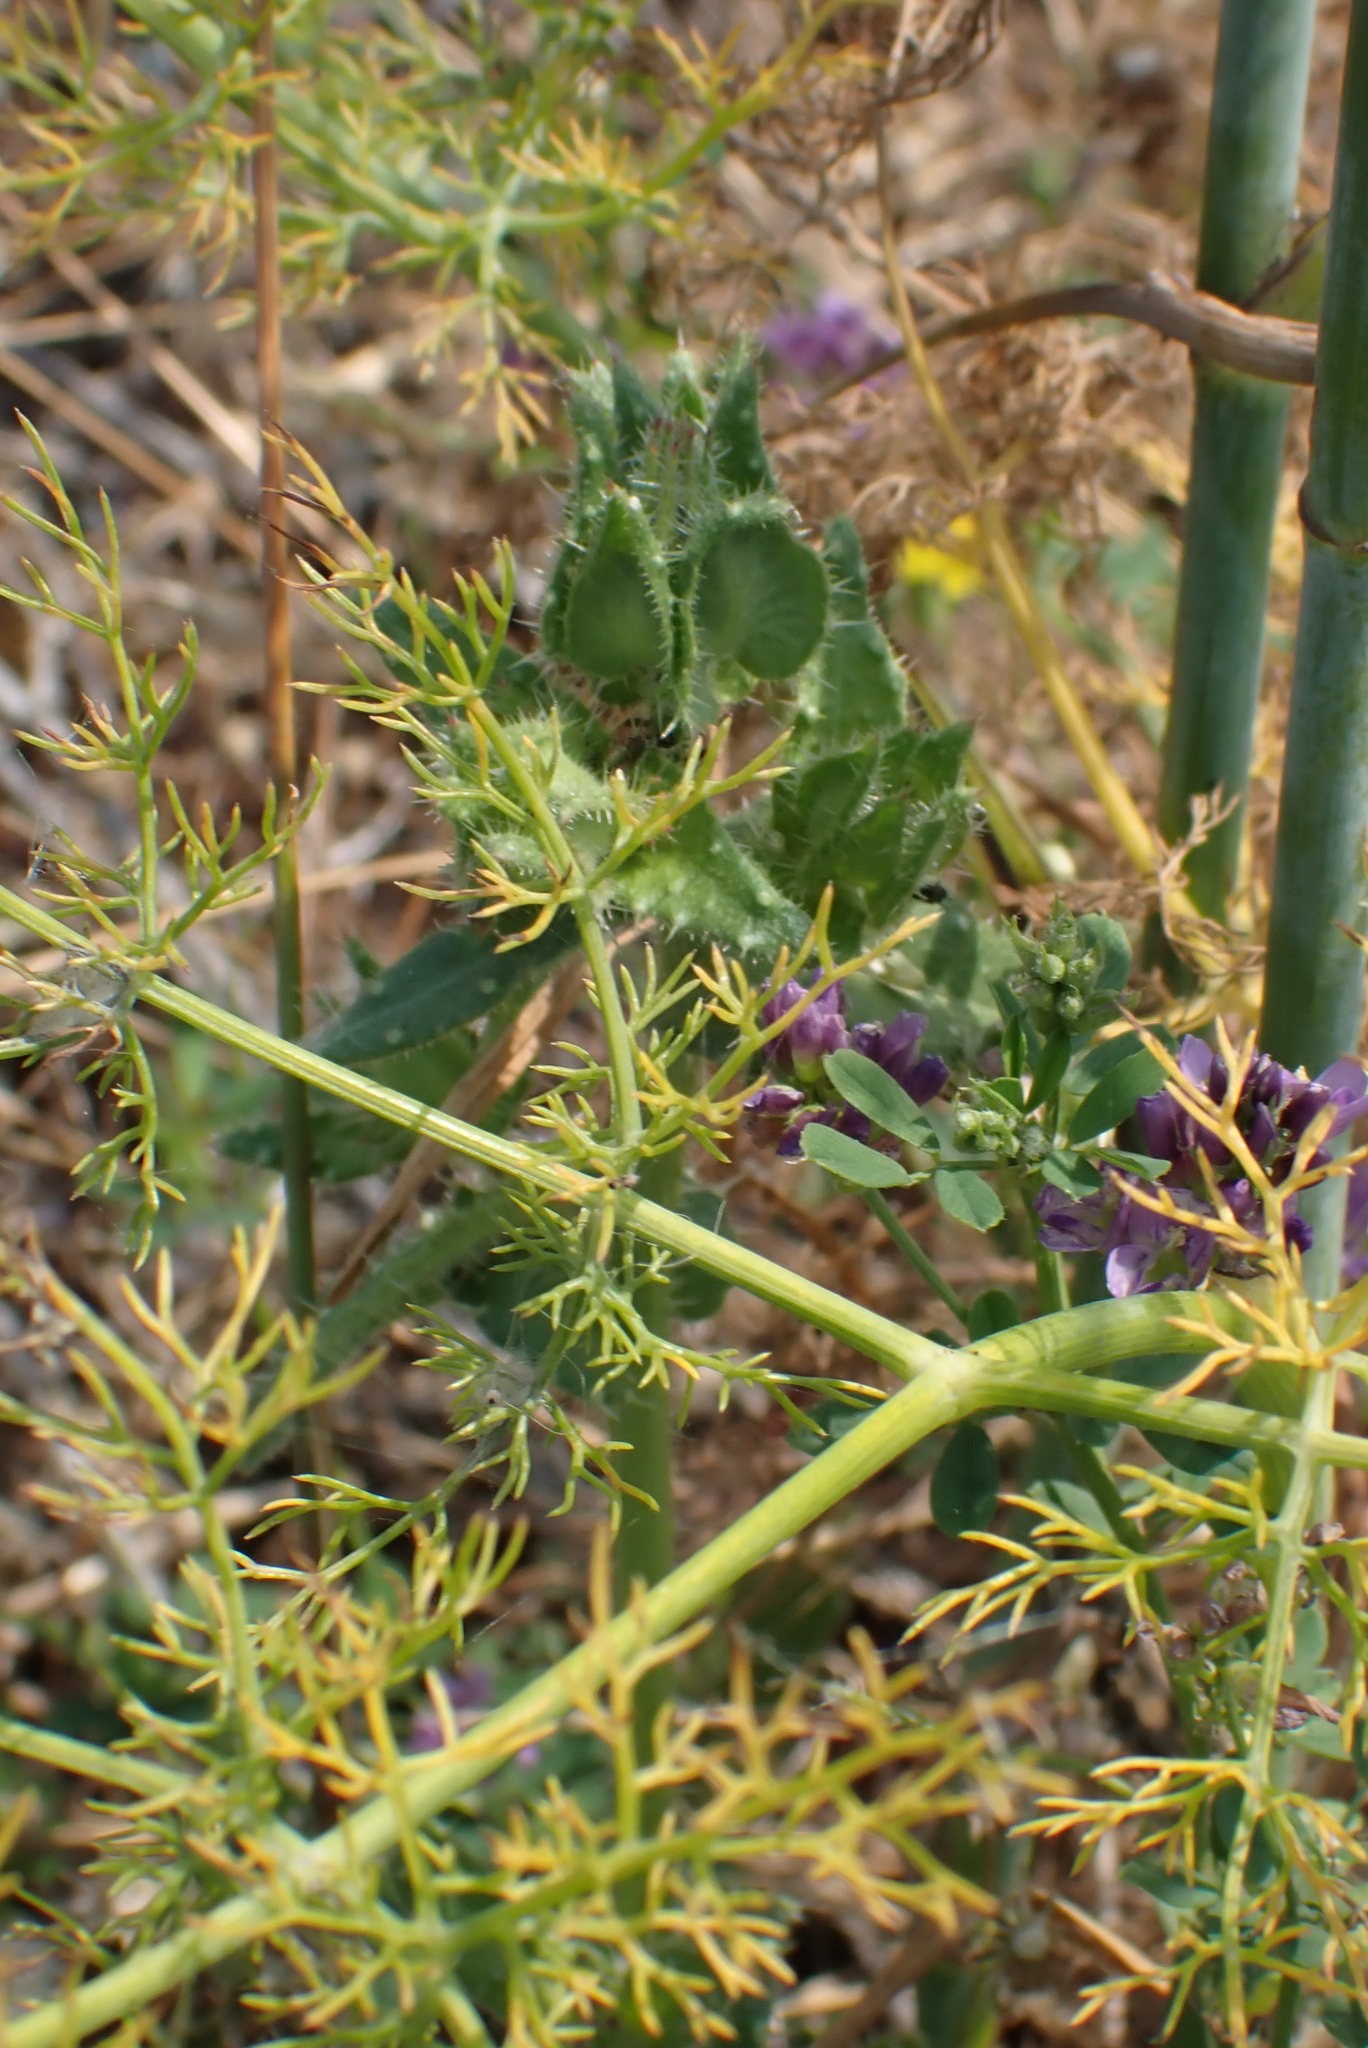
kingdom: Plantae
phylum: Tracheophyta
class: Magnoliopsida
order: Apiales
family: Apiaceae
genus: Foeniculum
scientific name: Foeniculum vulgare
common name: Fennel
